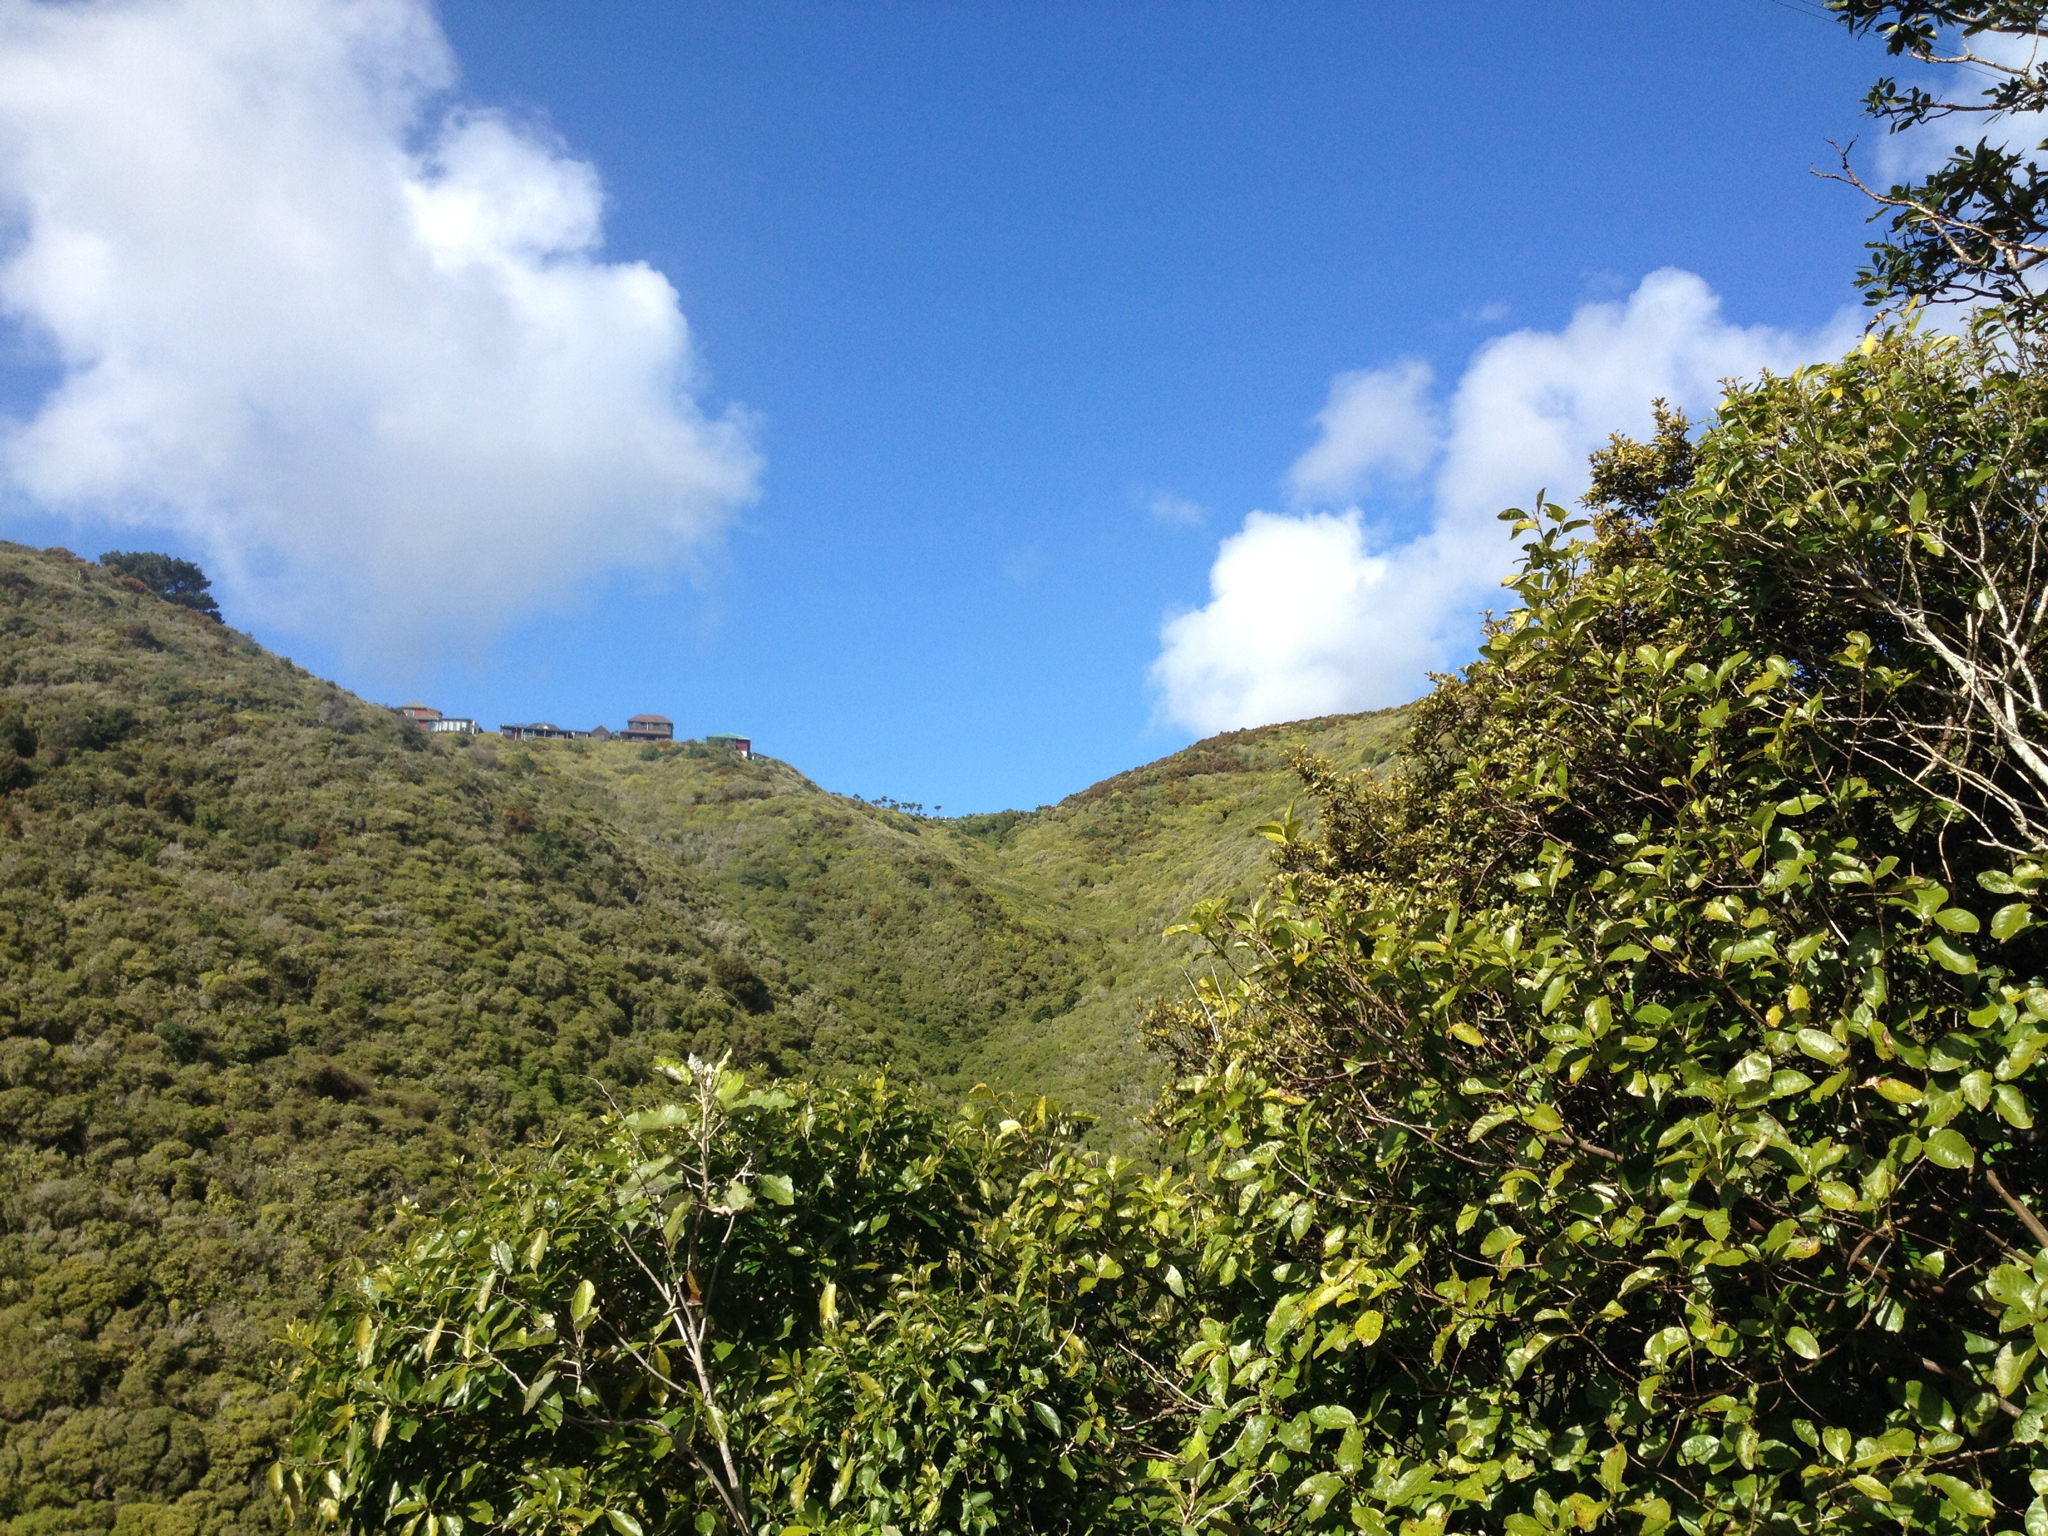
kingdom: Plantae
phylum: Tracheophyta
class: Magnoliopsida
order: Gentianales
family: Rubiaceae
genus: Coprosma
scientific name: Coprosma autumnalis
